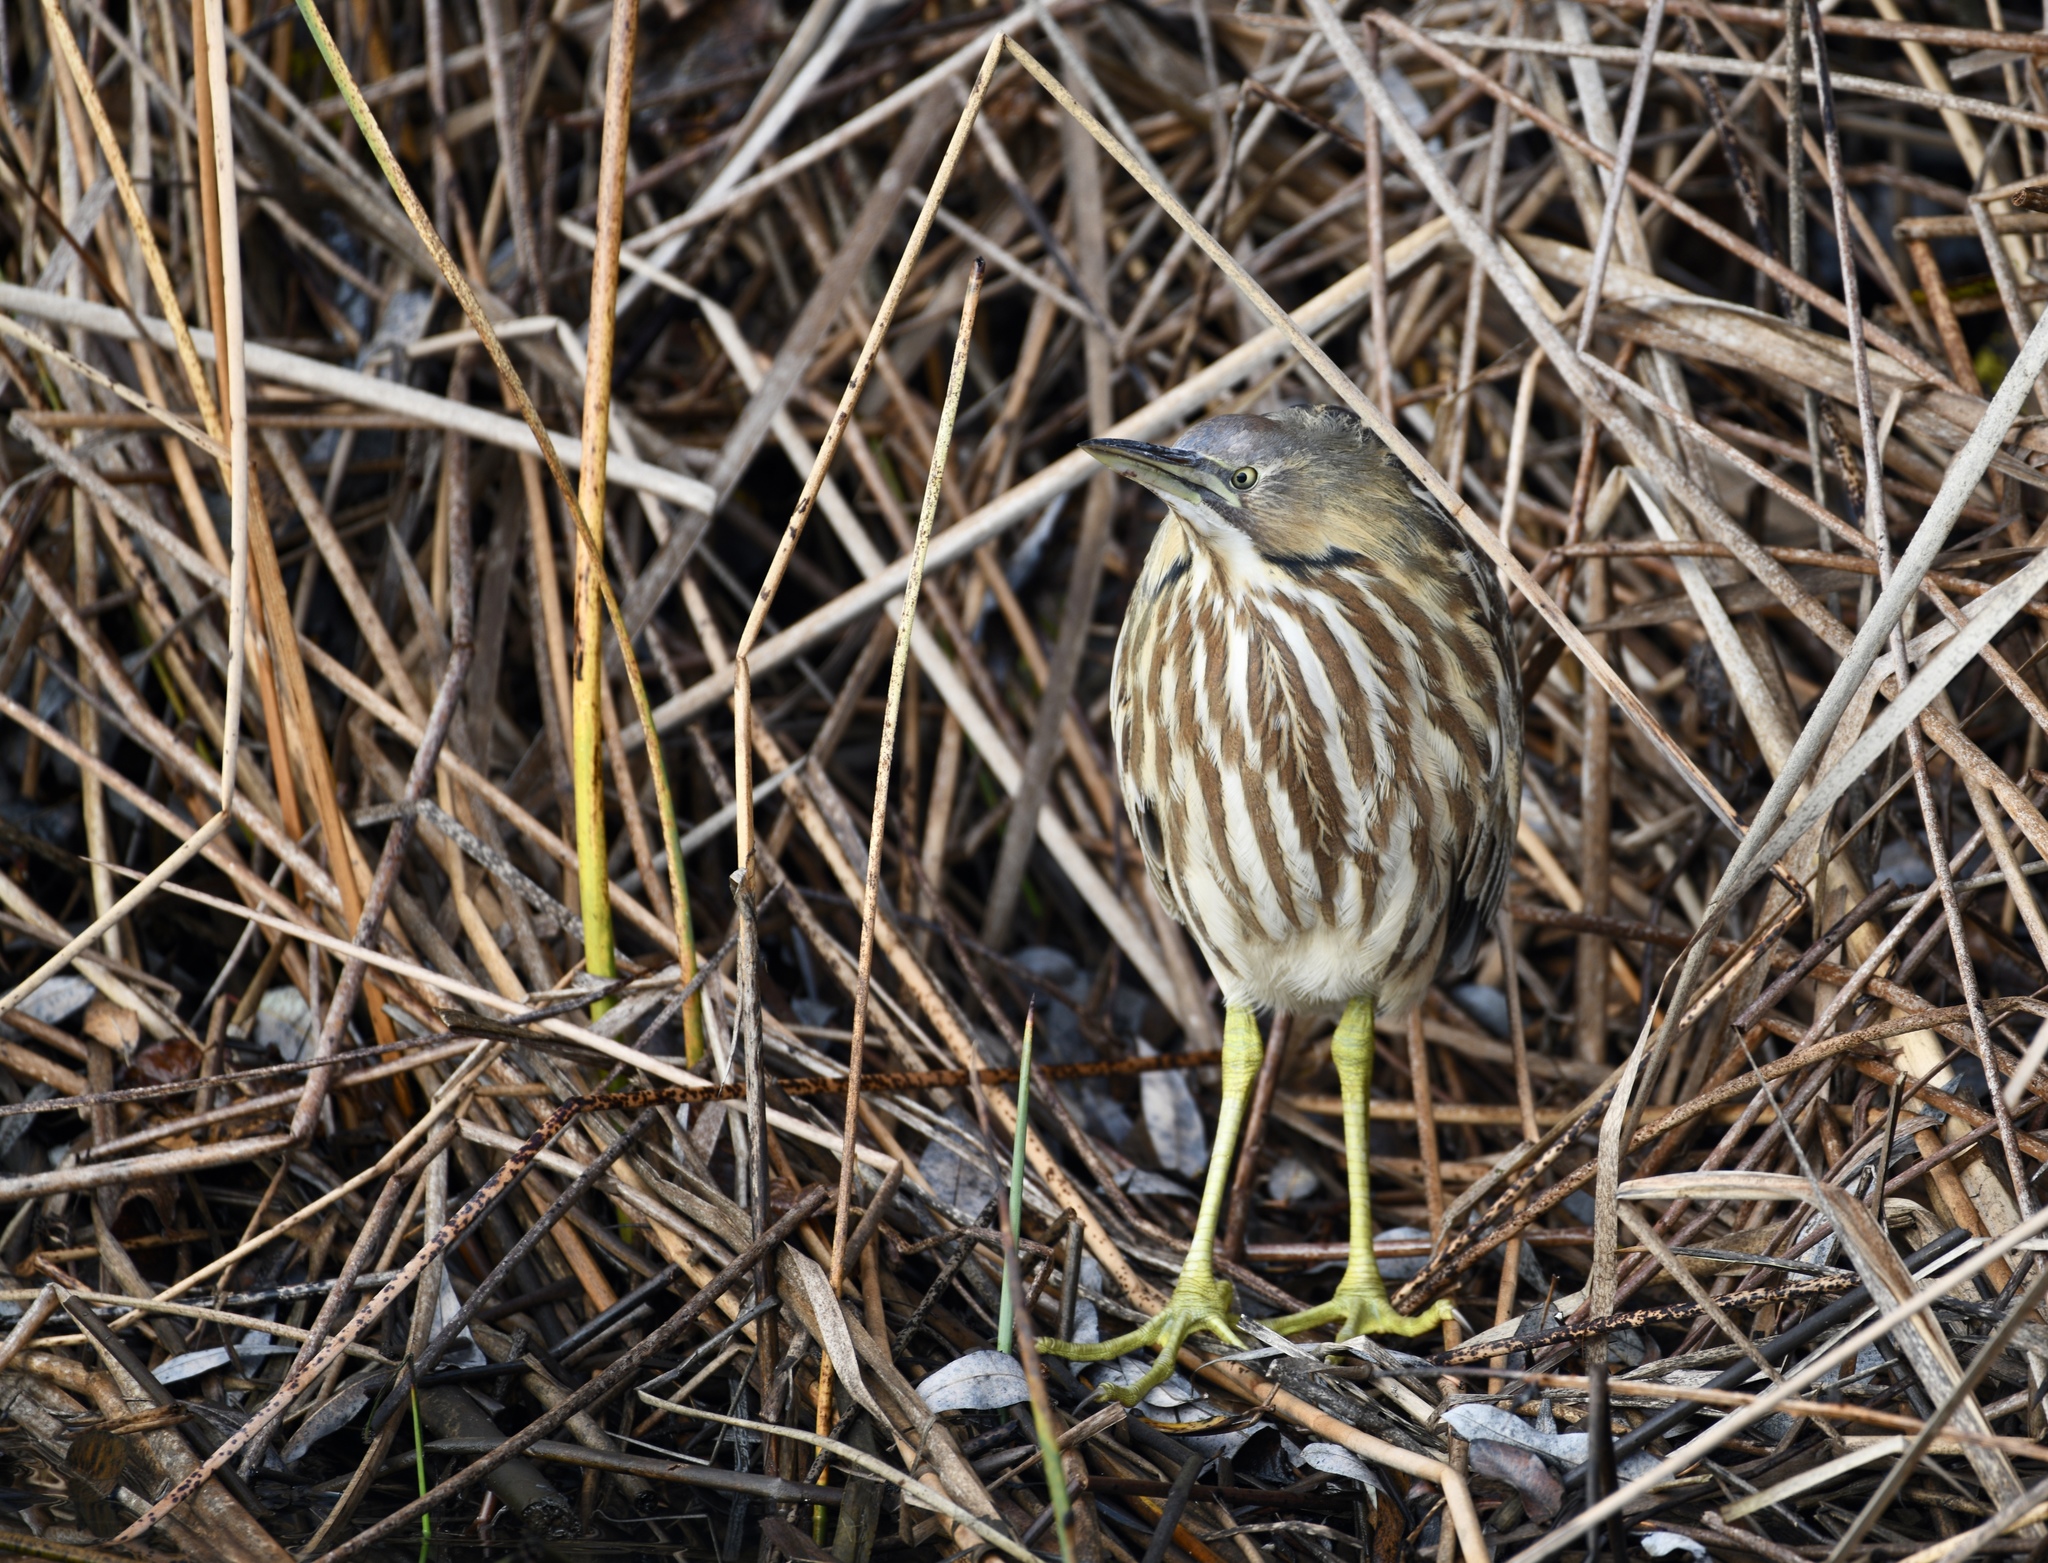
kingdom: Animalia
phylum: Chordata
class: Aves
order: Pelecaniformes
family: Ardeidae
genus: Botaurus
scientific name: Botaurus lentiginosus
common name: American bittern
